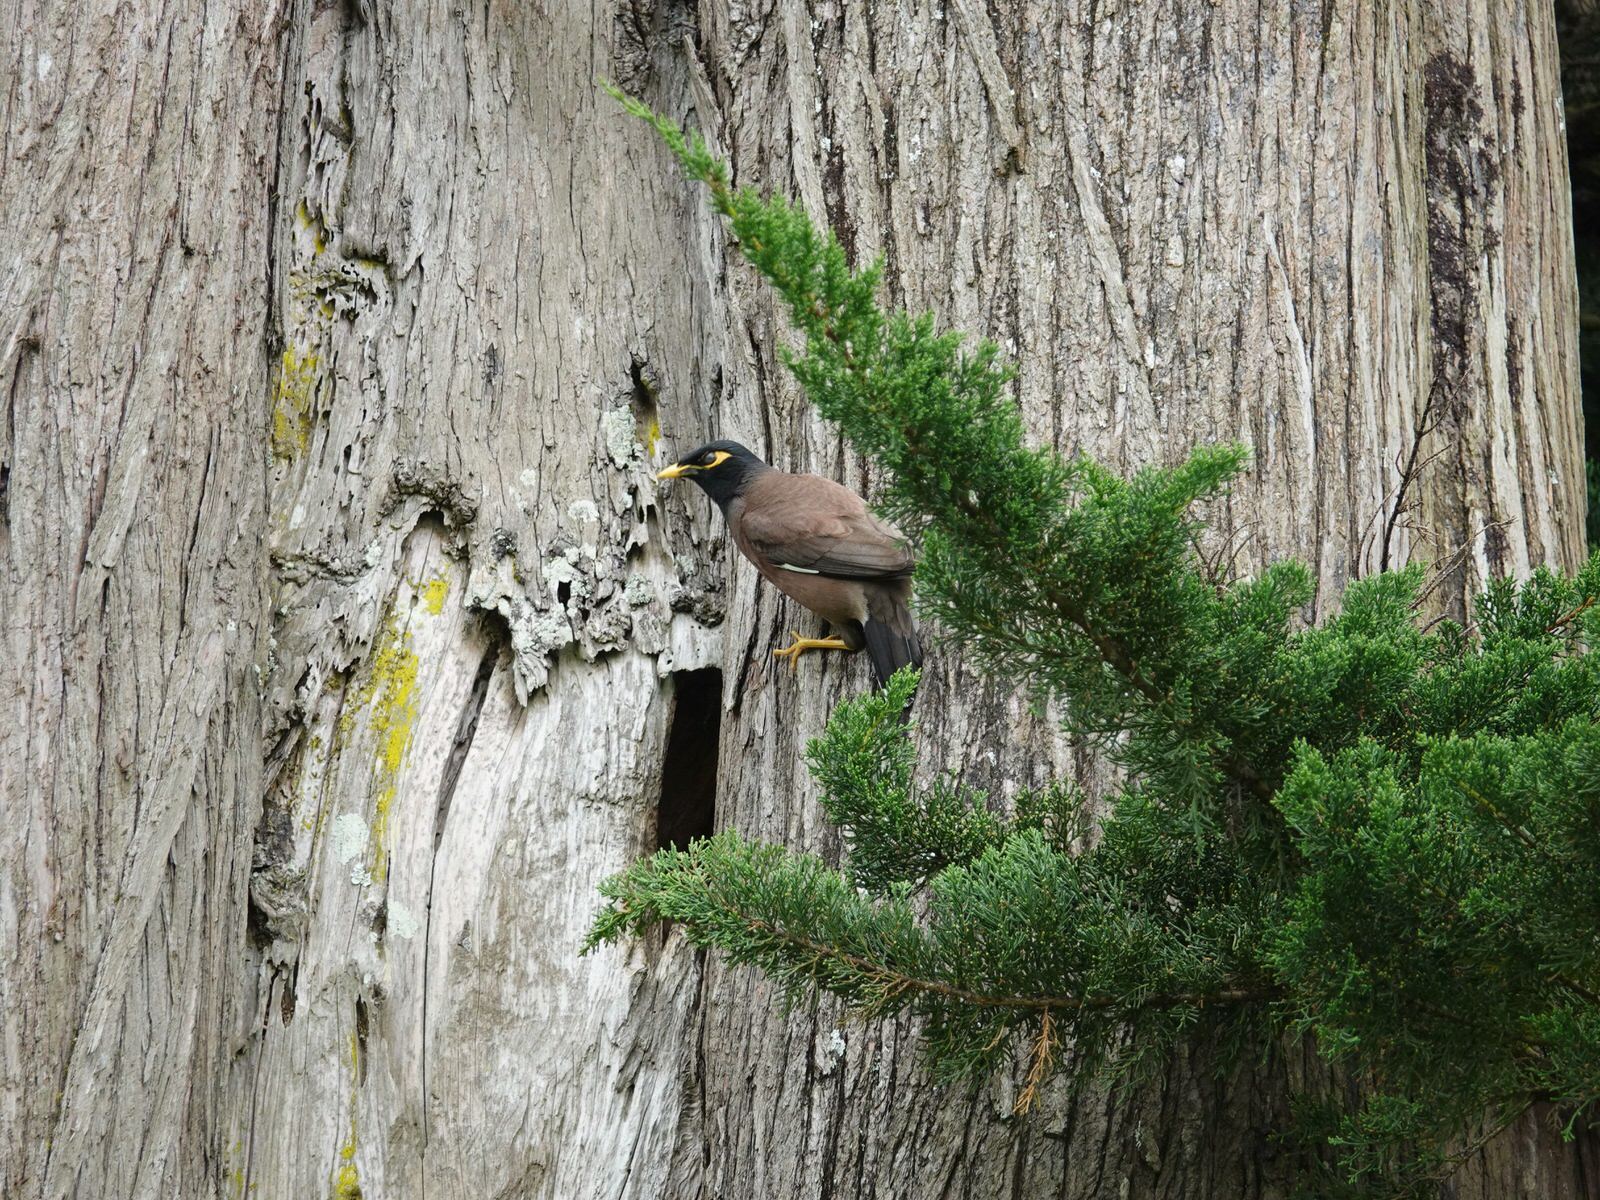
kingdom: Animalia
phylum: Chordata
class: Aves
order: Passeriformes
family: Sturnidae
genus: Acridotheres
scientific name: Acridotheres tristis
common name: Common myna
